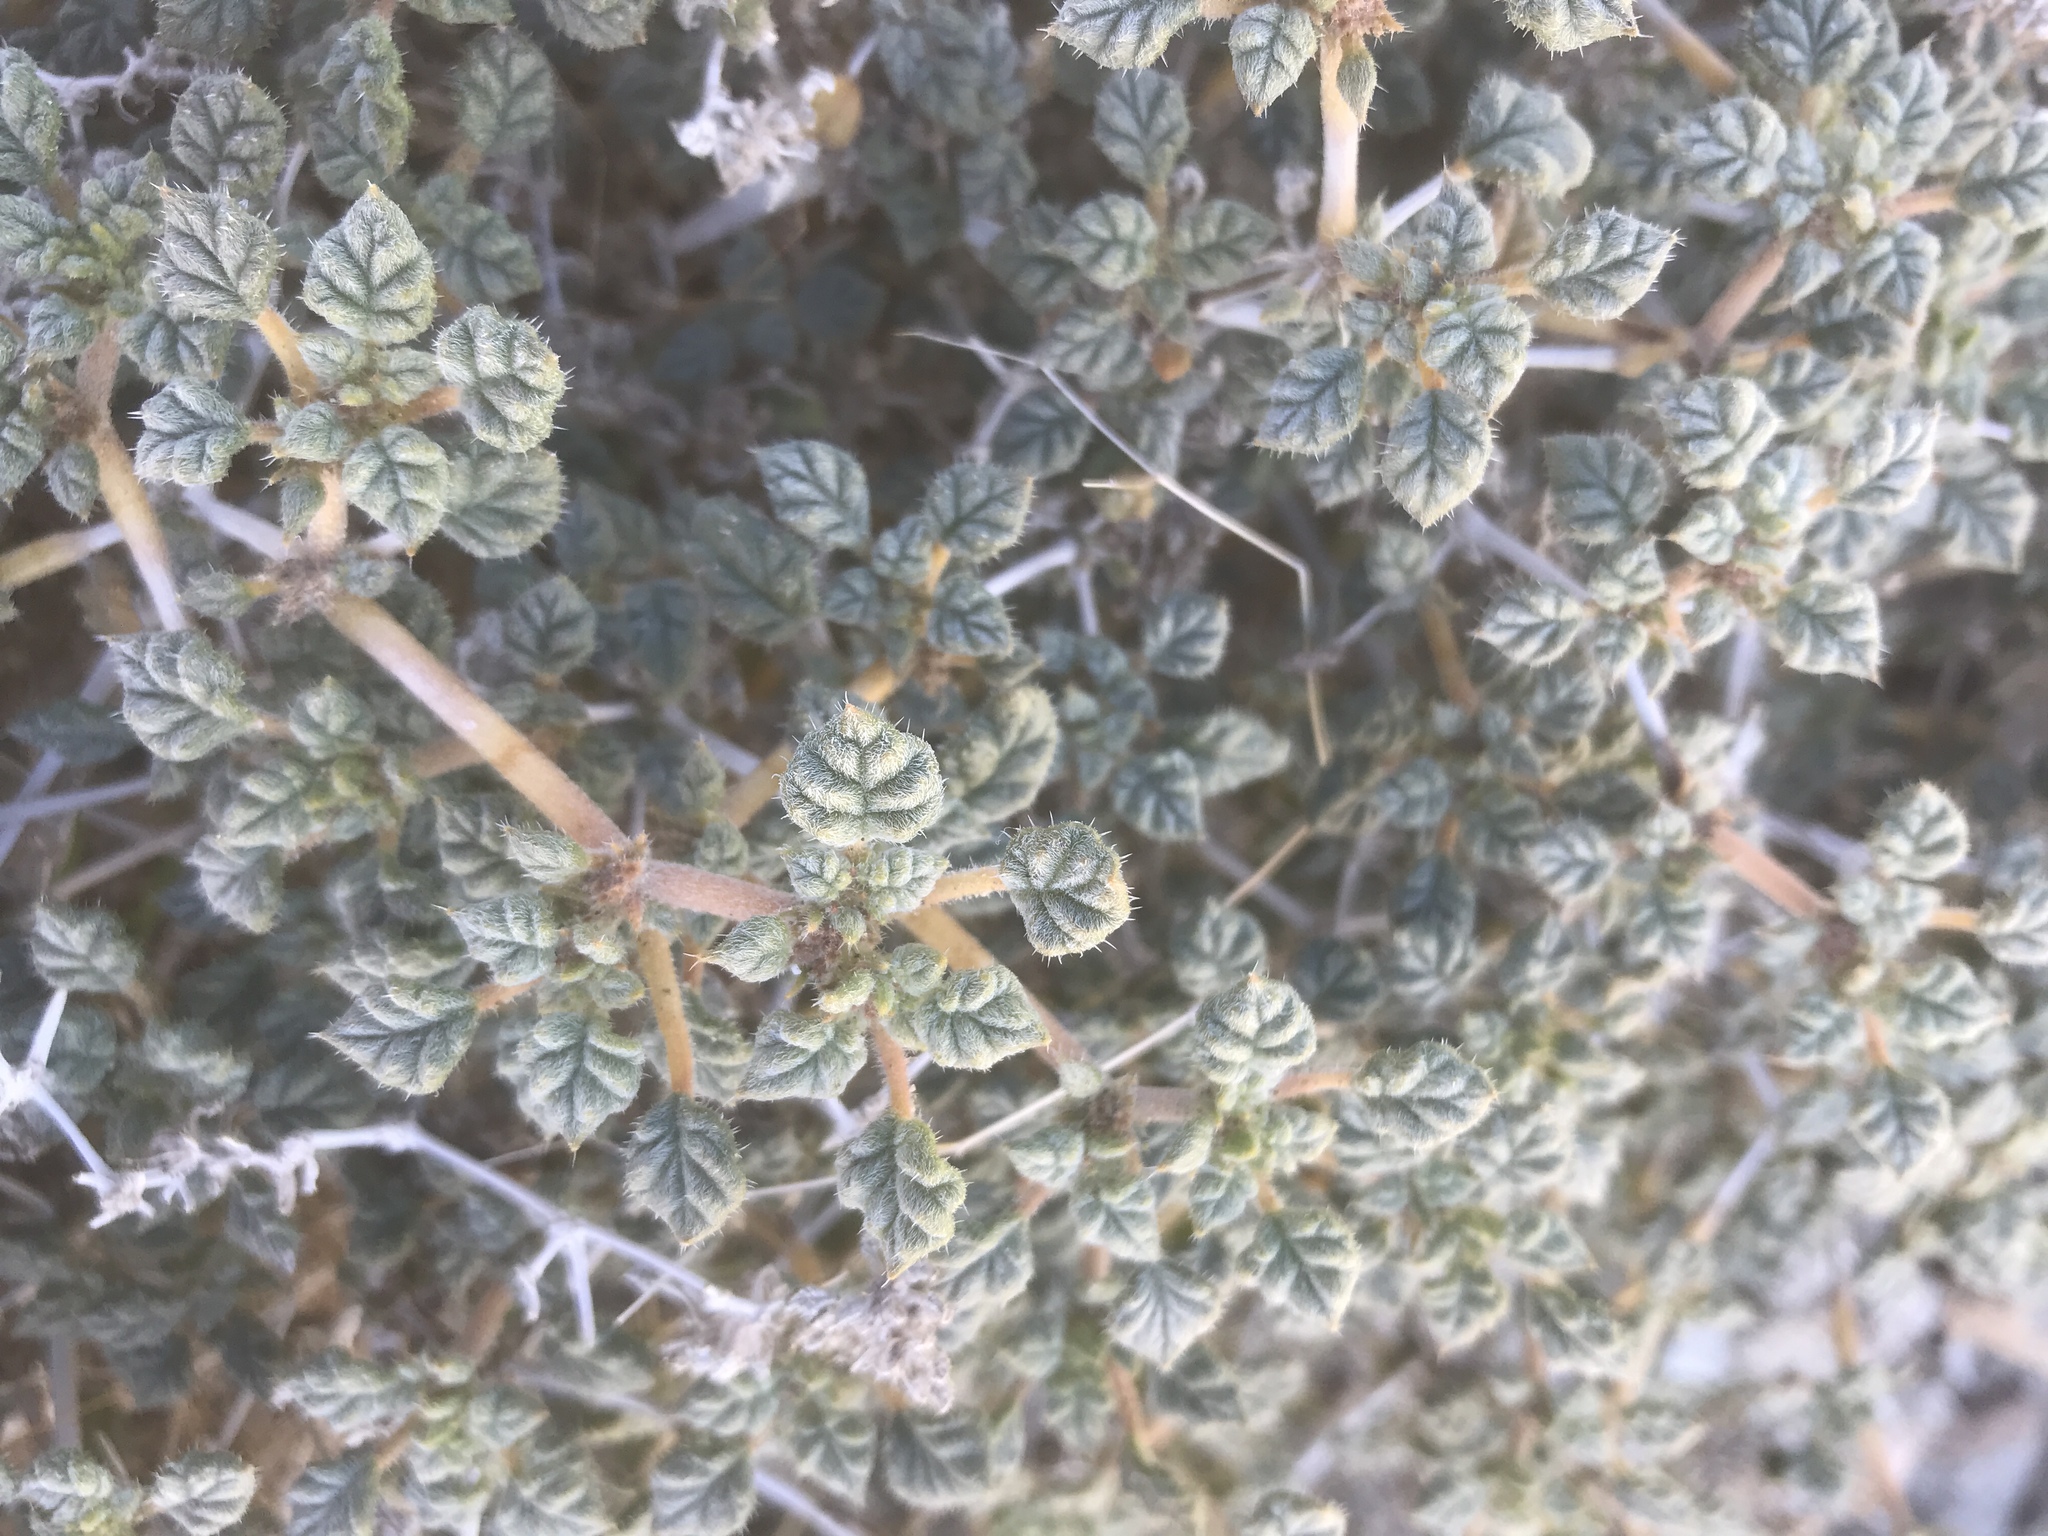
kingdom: Plantae
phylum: Tracheophyta
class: Magnoliopsida
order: Boraginales
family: Ehretiaceae
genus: Tiquilia
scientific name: Tiquilia palmeri
